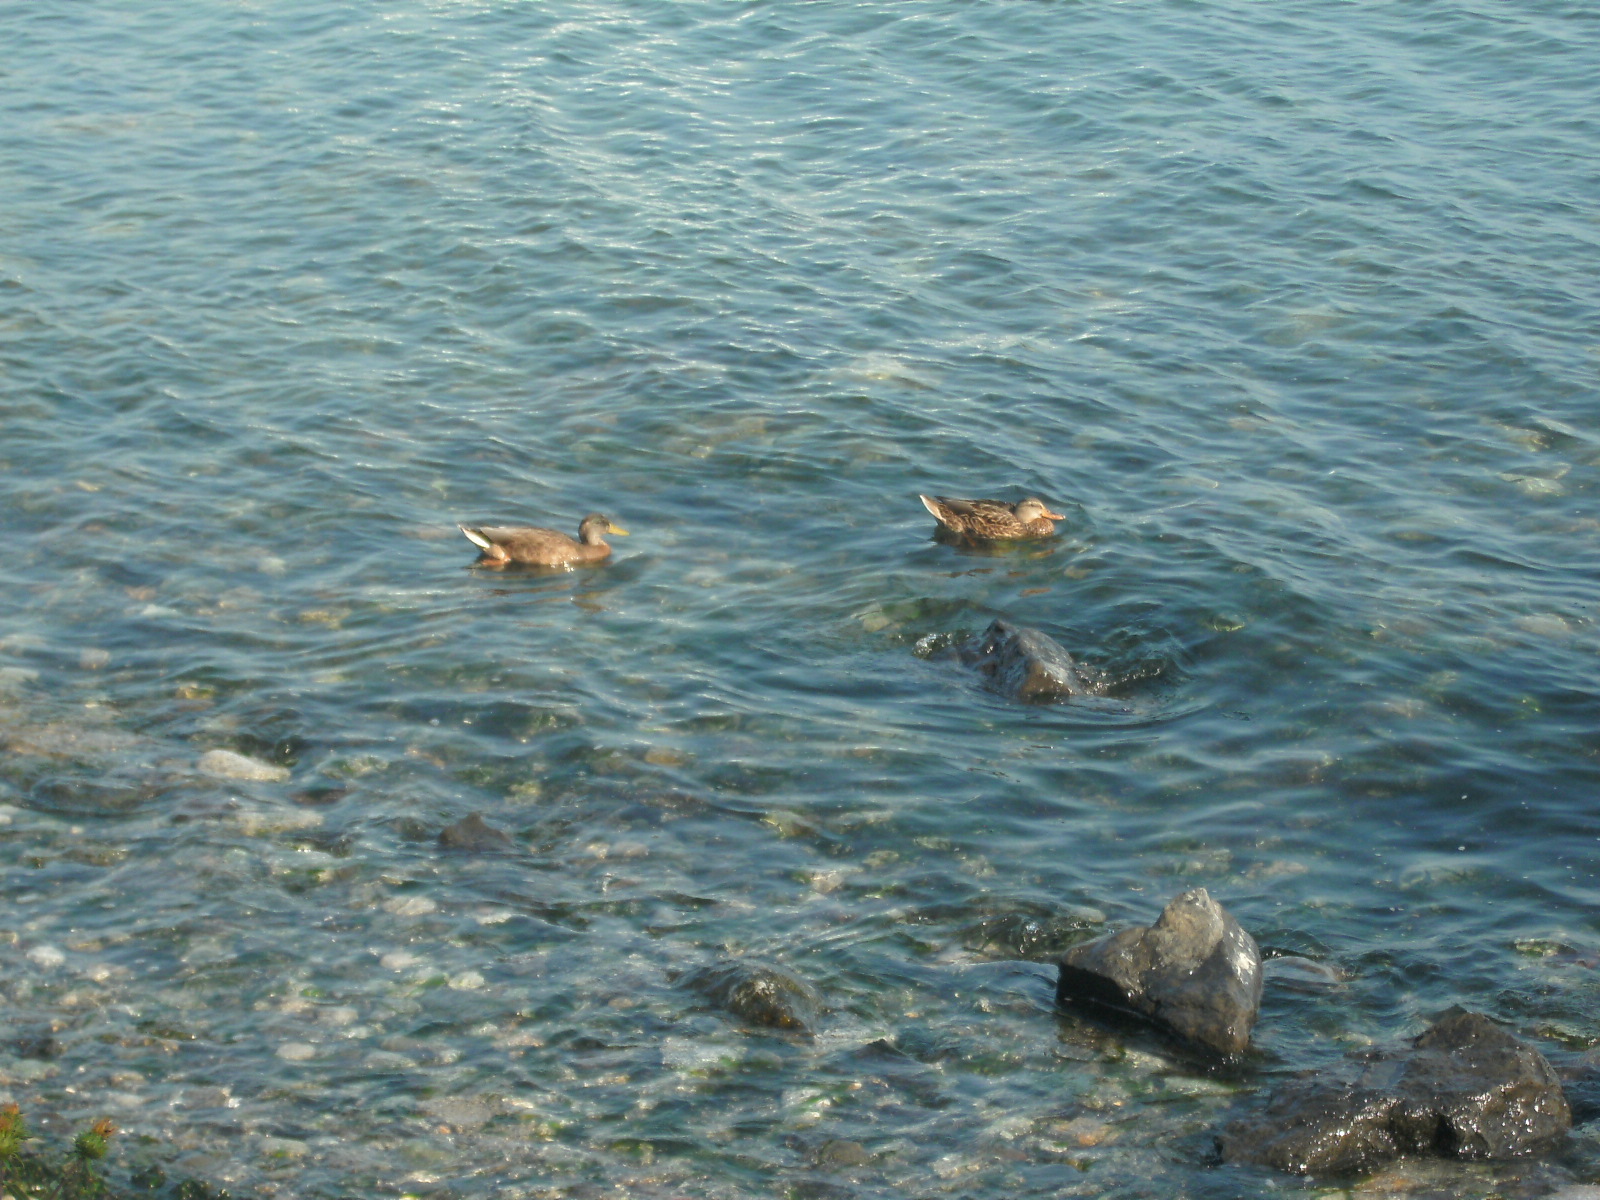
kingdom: Animalia
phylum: Chordata
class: Aves
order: Anseriformes
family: Anatidae
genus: Anas
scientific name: Anas platyrhynchos
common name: Mallard
